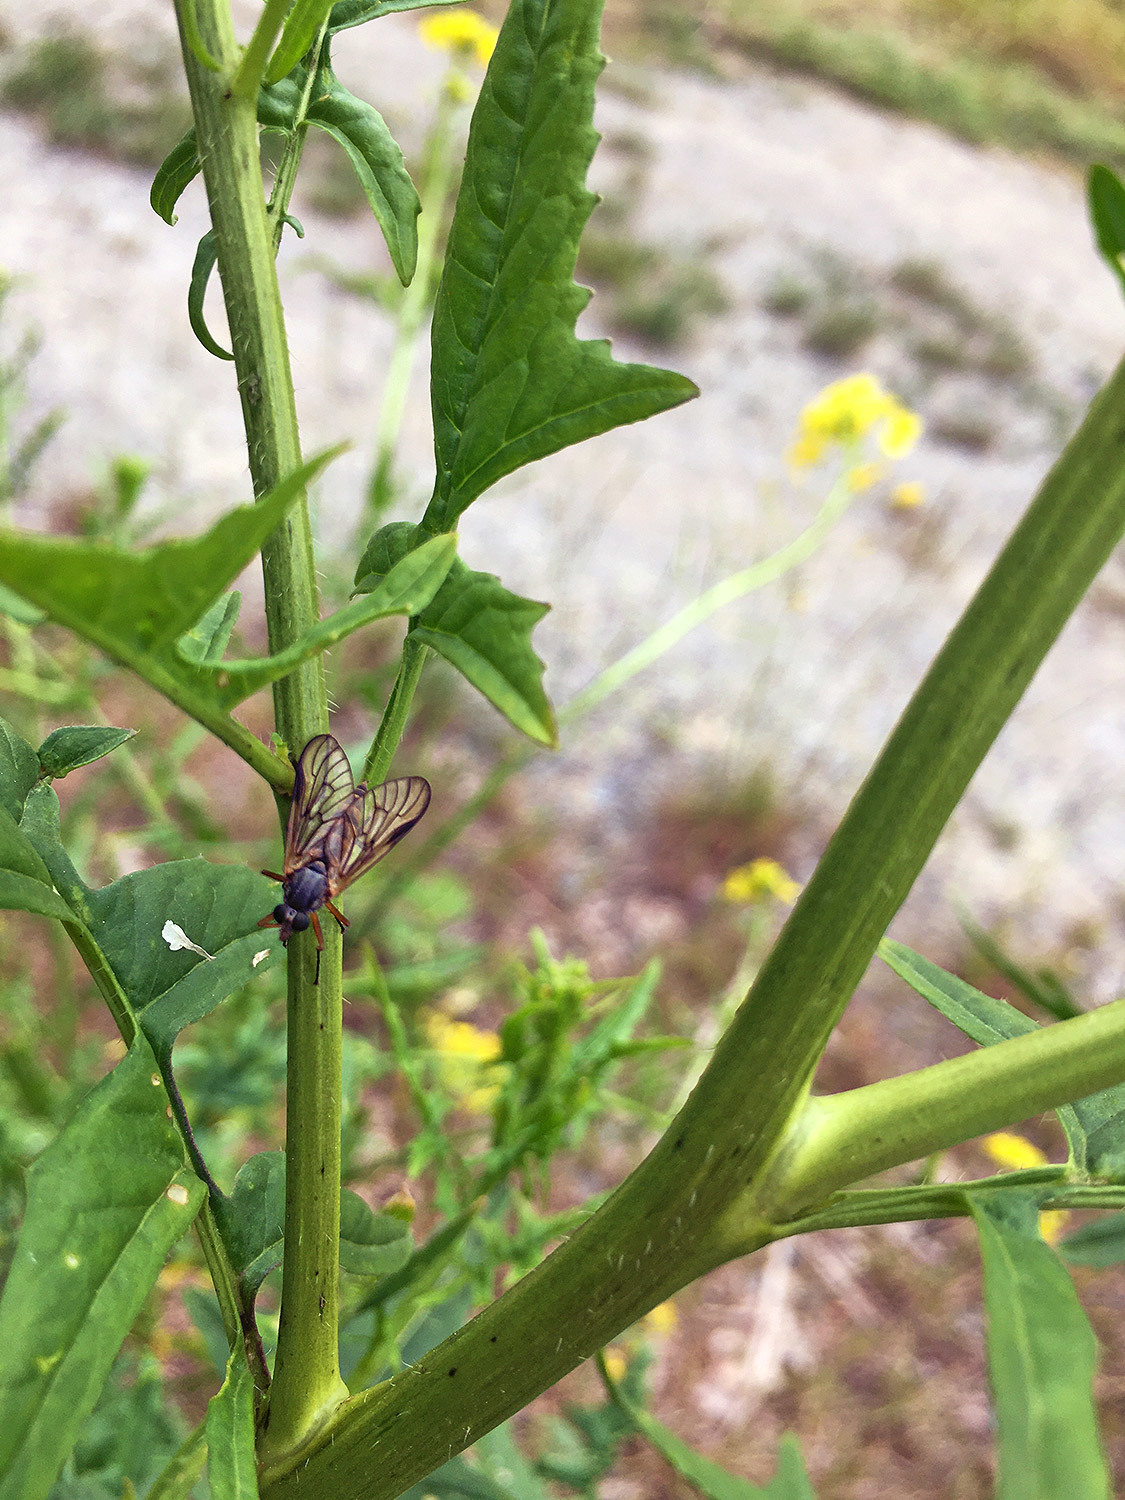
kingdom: Animalia
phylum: Arthropoda
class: Insecta
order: Diptera
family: Rhagionidae
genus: Rhagio
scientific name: Rhagio vitripennis
